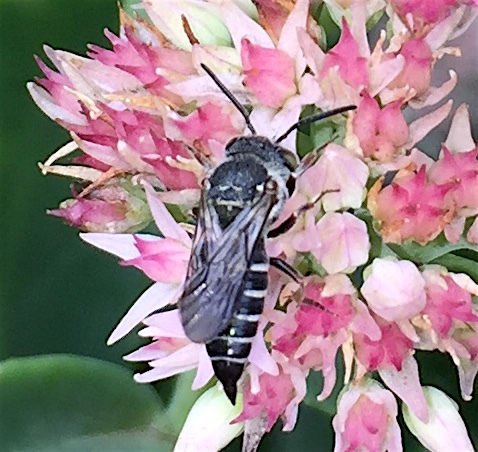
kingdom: Animalia
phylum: Arthropoda
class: Insecta
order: Hymenoptera
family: Megachilidae
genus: Coelioxys
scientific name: Coelioxys sayi
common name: Say's cuckoo leaf-cutter bee
